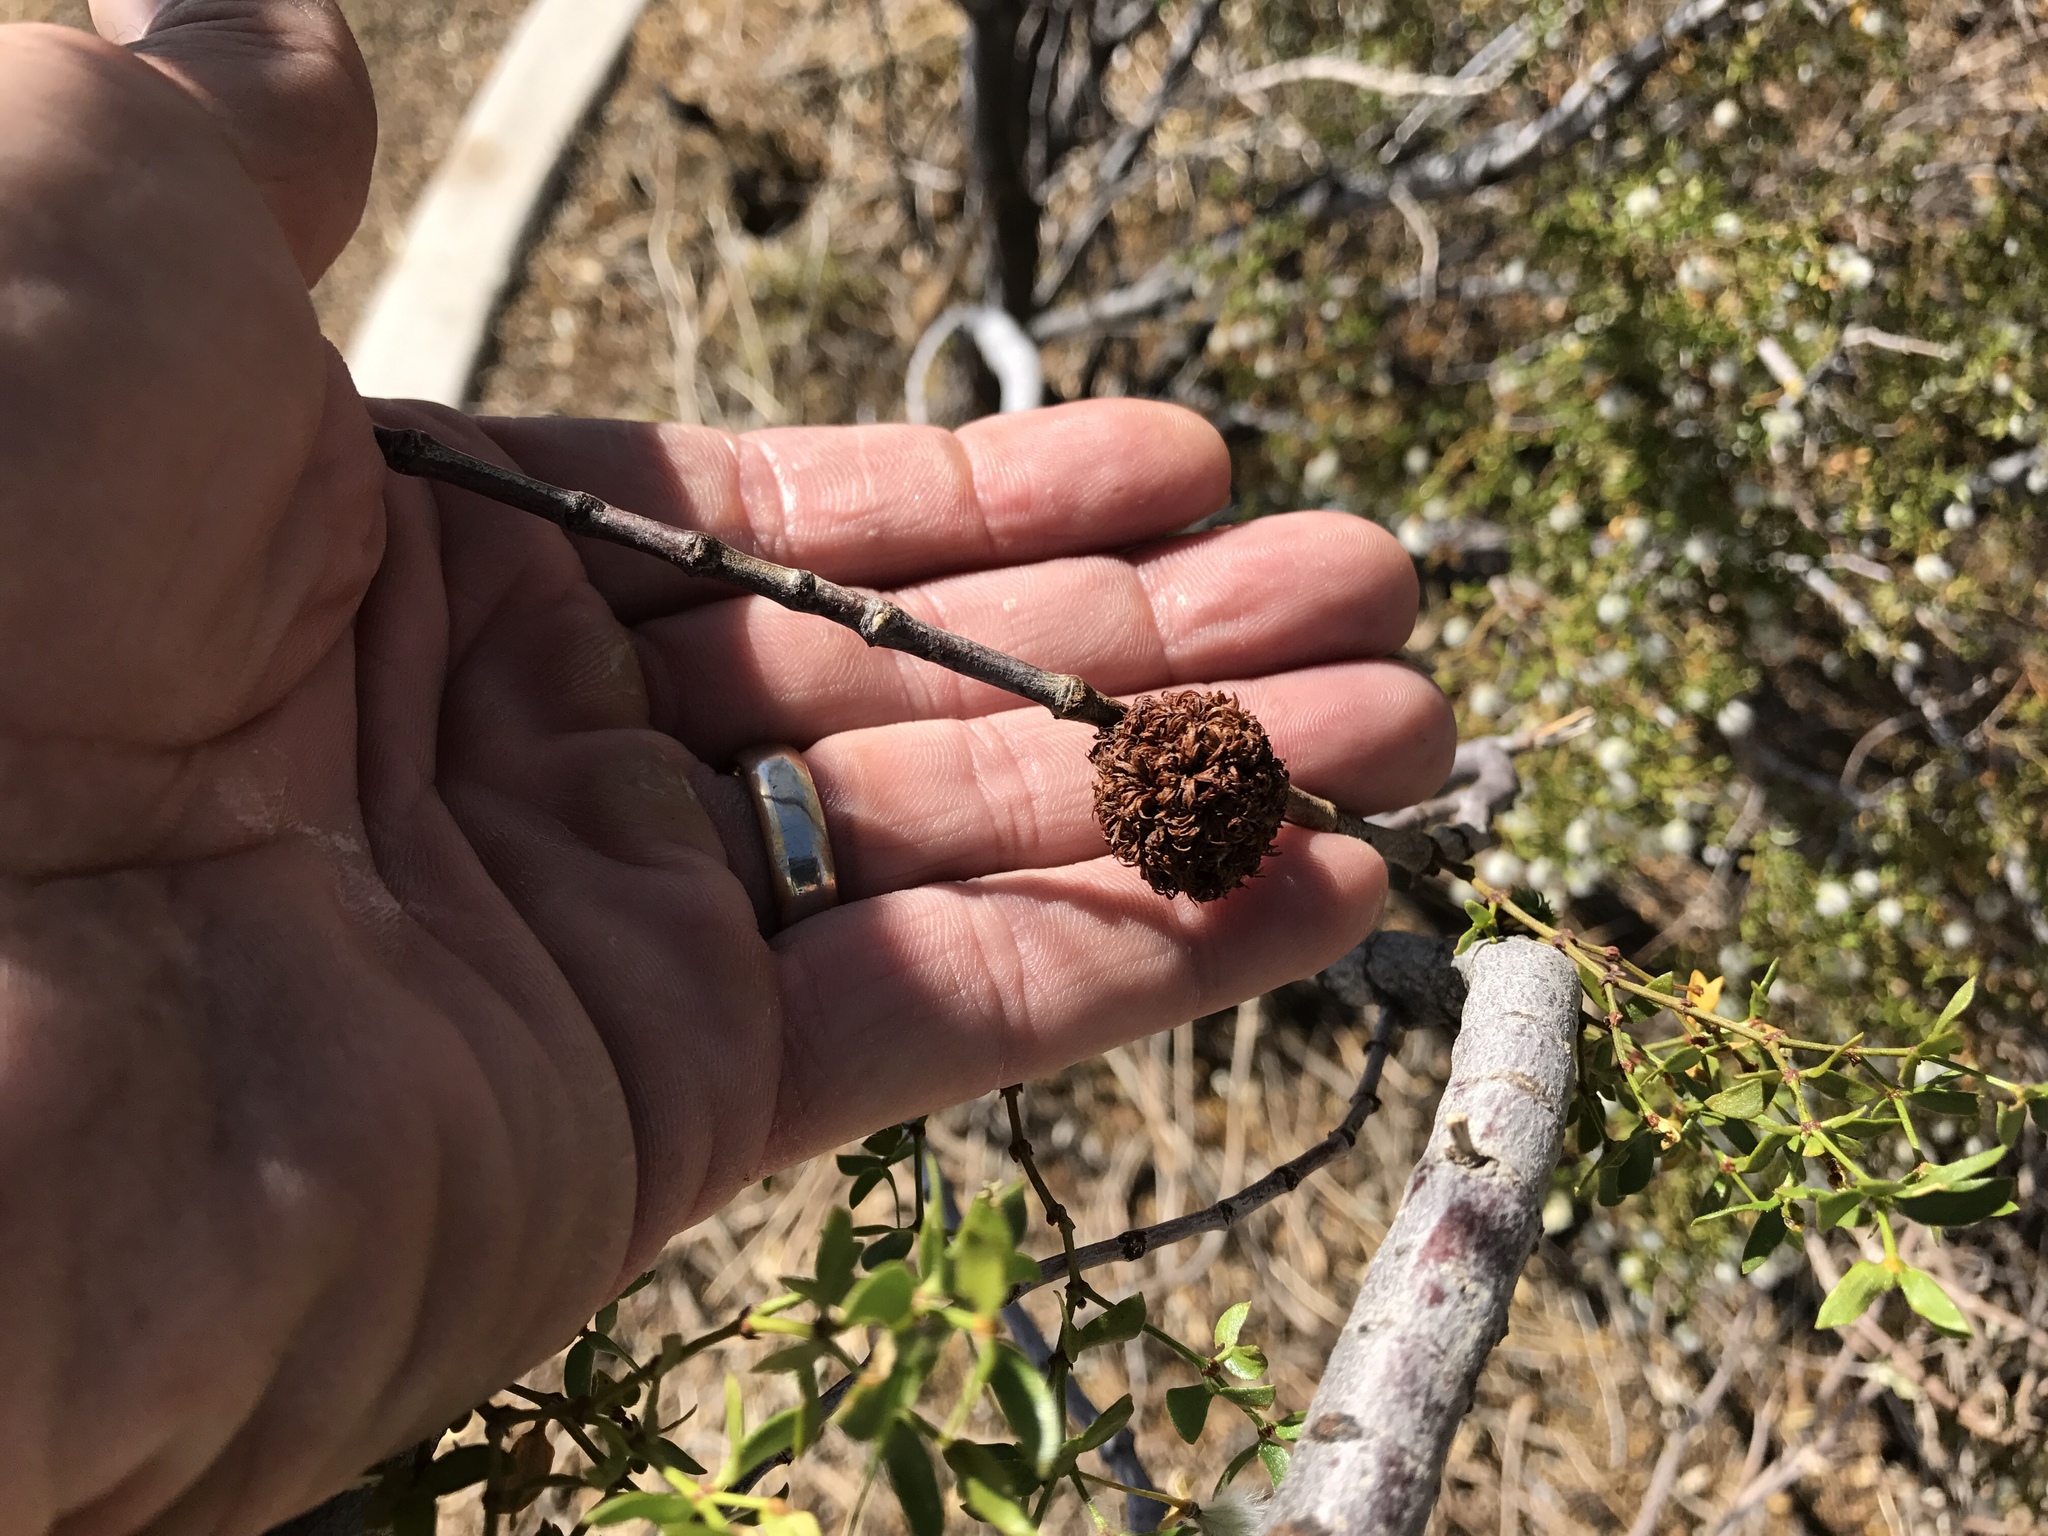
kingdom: Animalia
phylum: Arthropoda
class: Insecta
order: Diptera
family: Cecidomyiidae
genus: Asphondylia
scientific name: Asphondylia auripila
